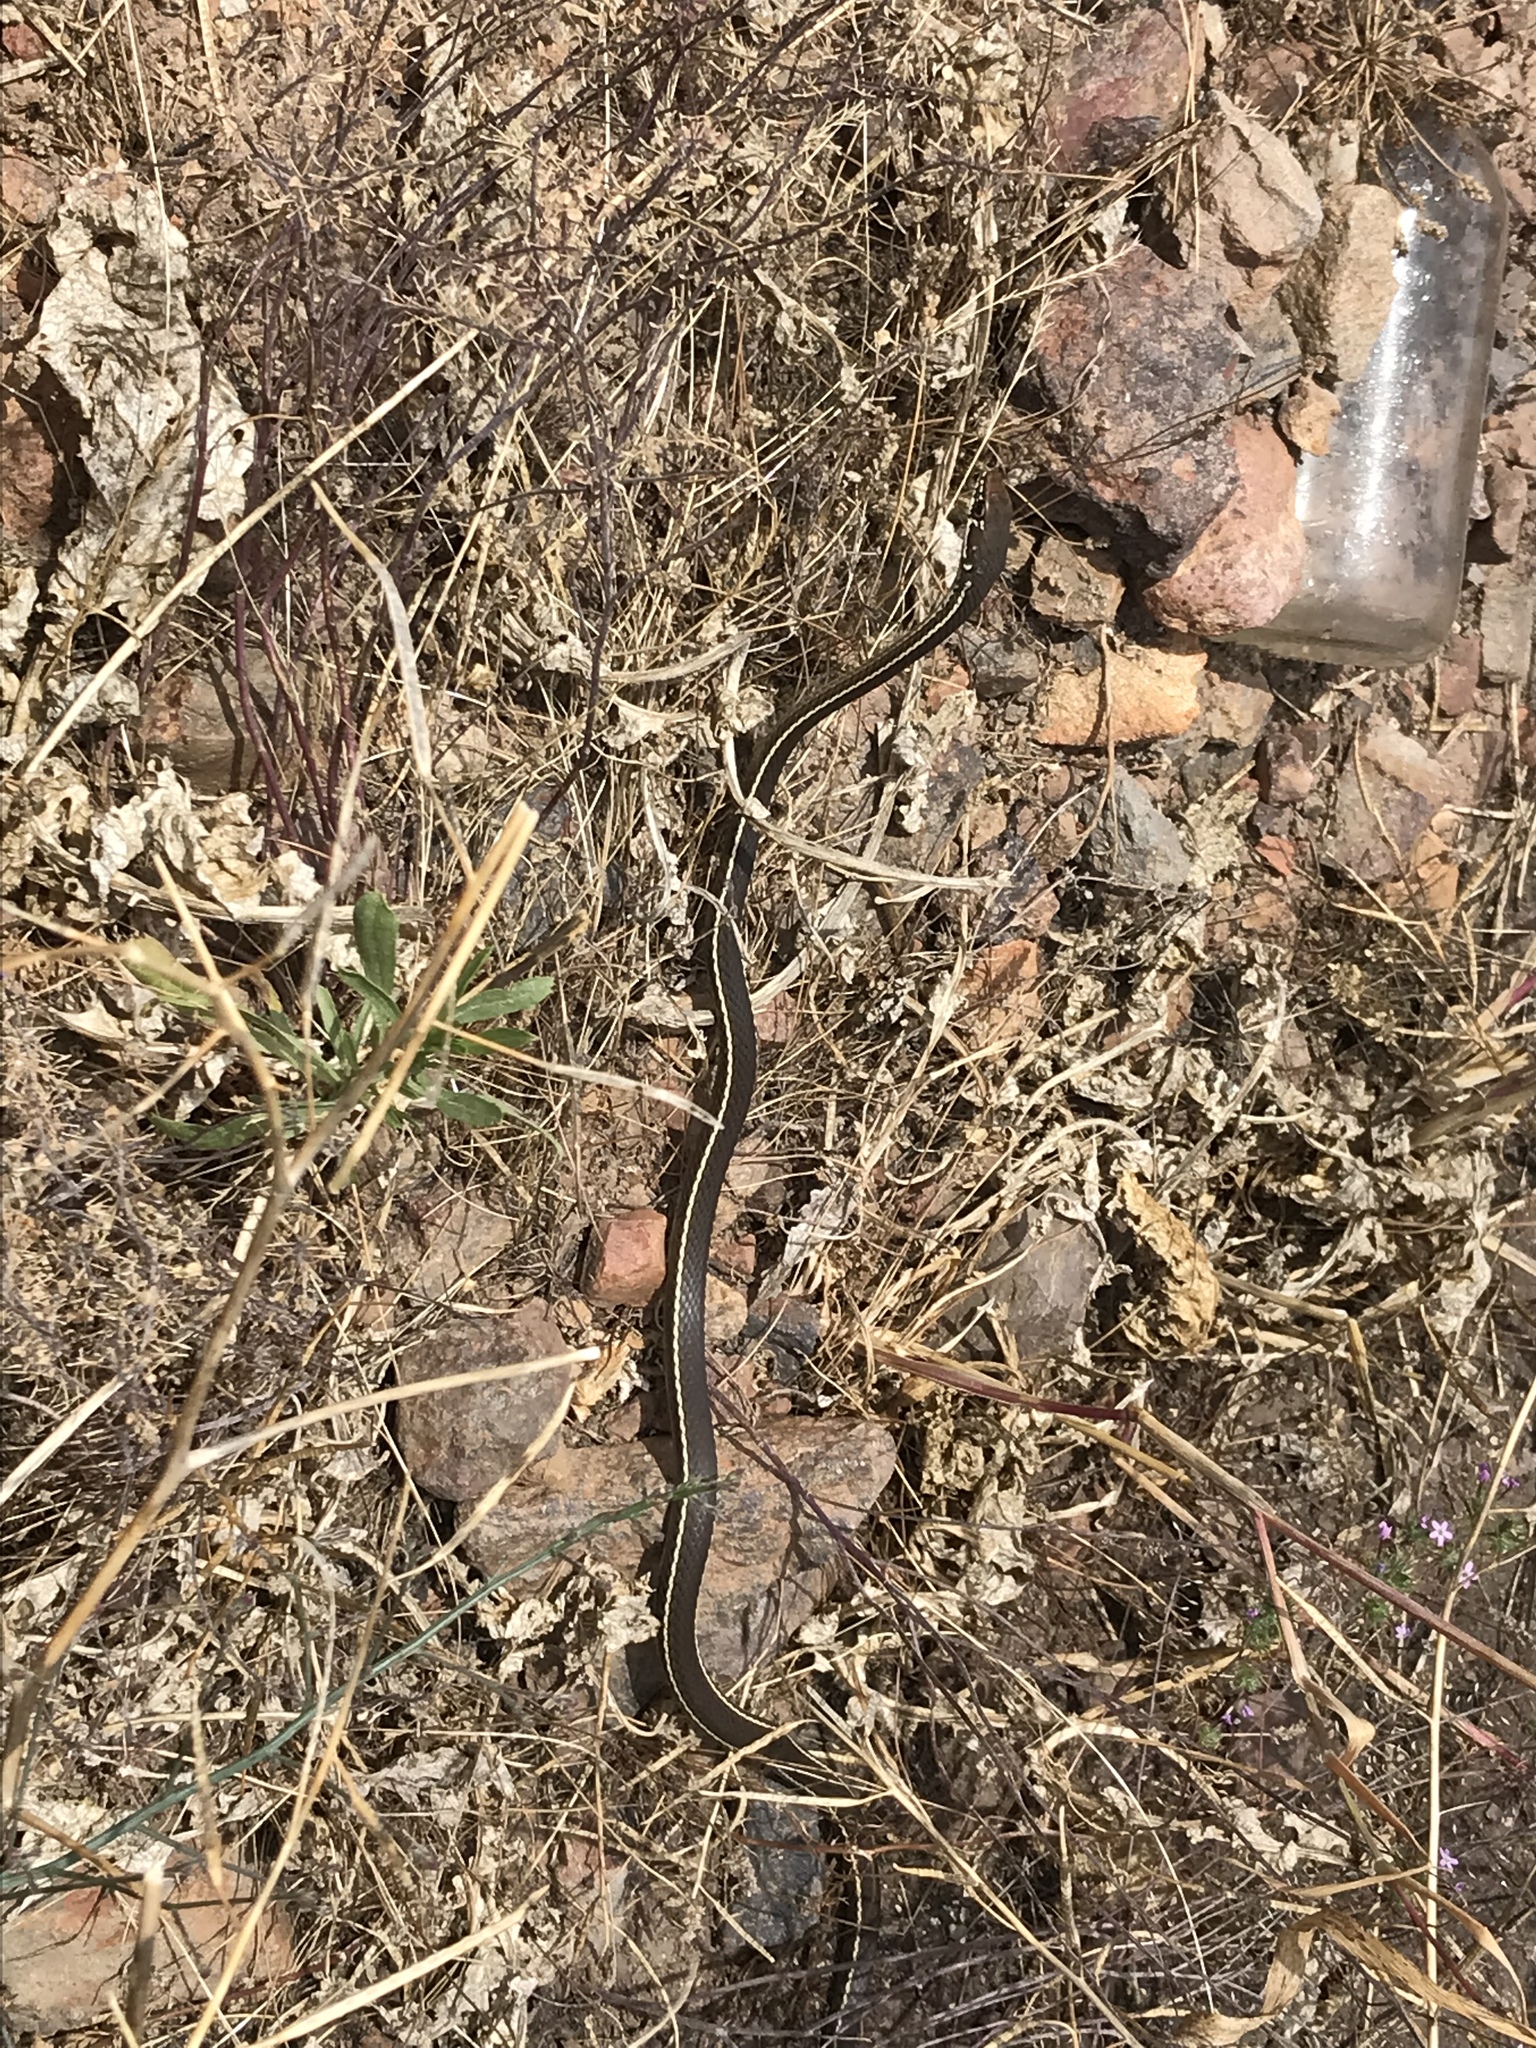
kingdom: Animalia
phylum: Chordata
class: Squamata
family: Colubridae
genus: Masticophis
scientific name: Masticophis lateralis
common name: Striped racer
